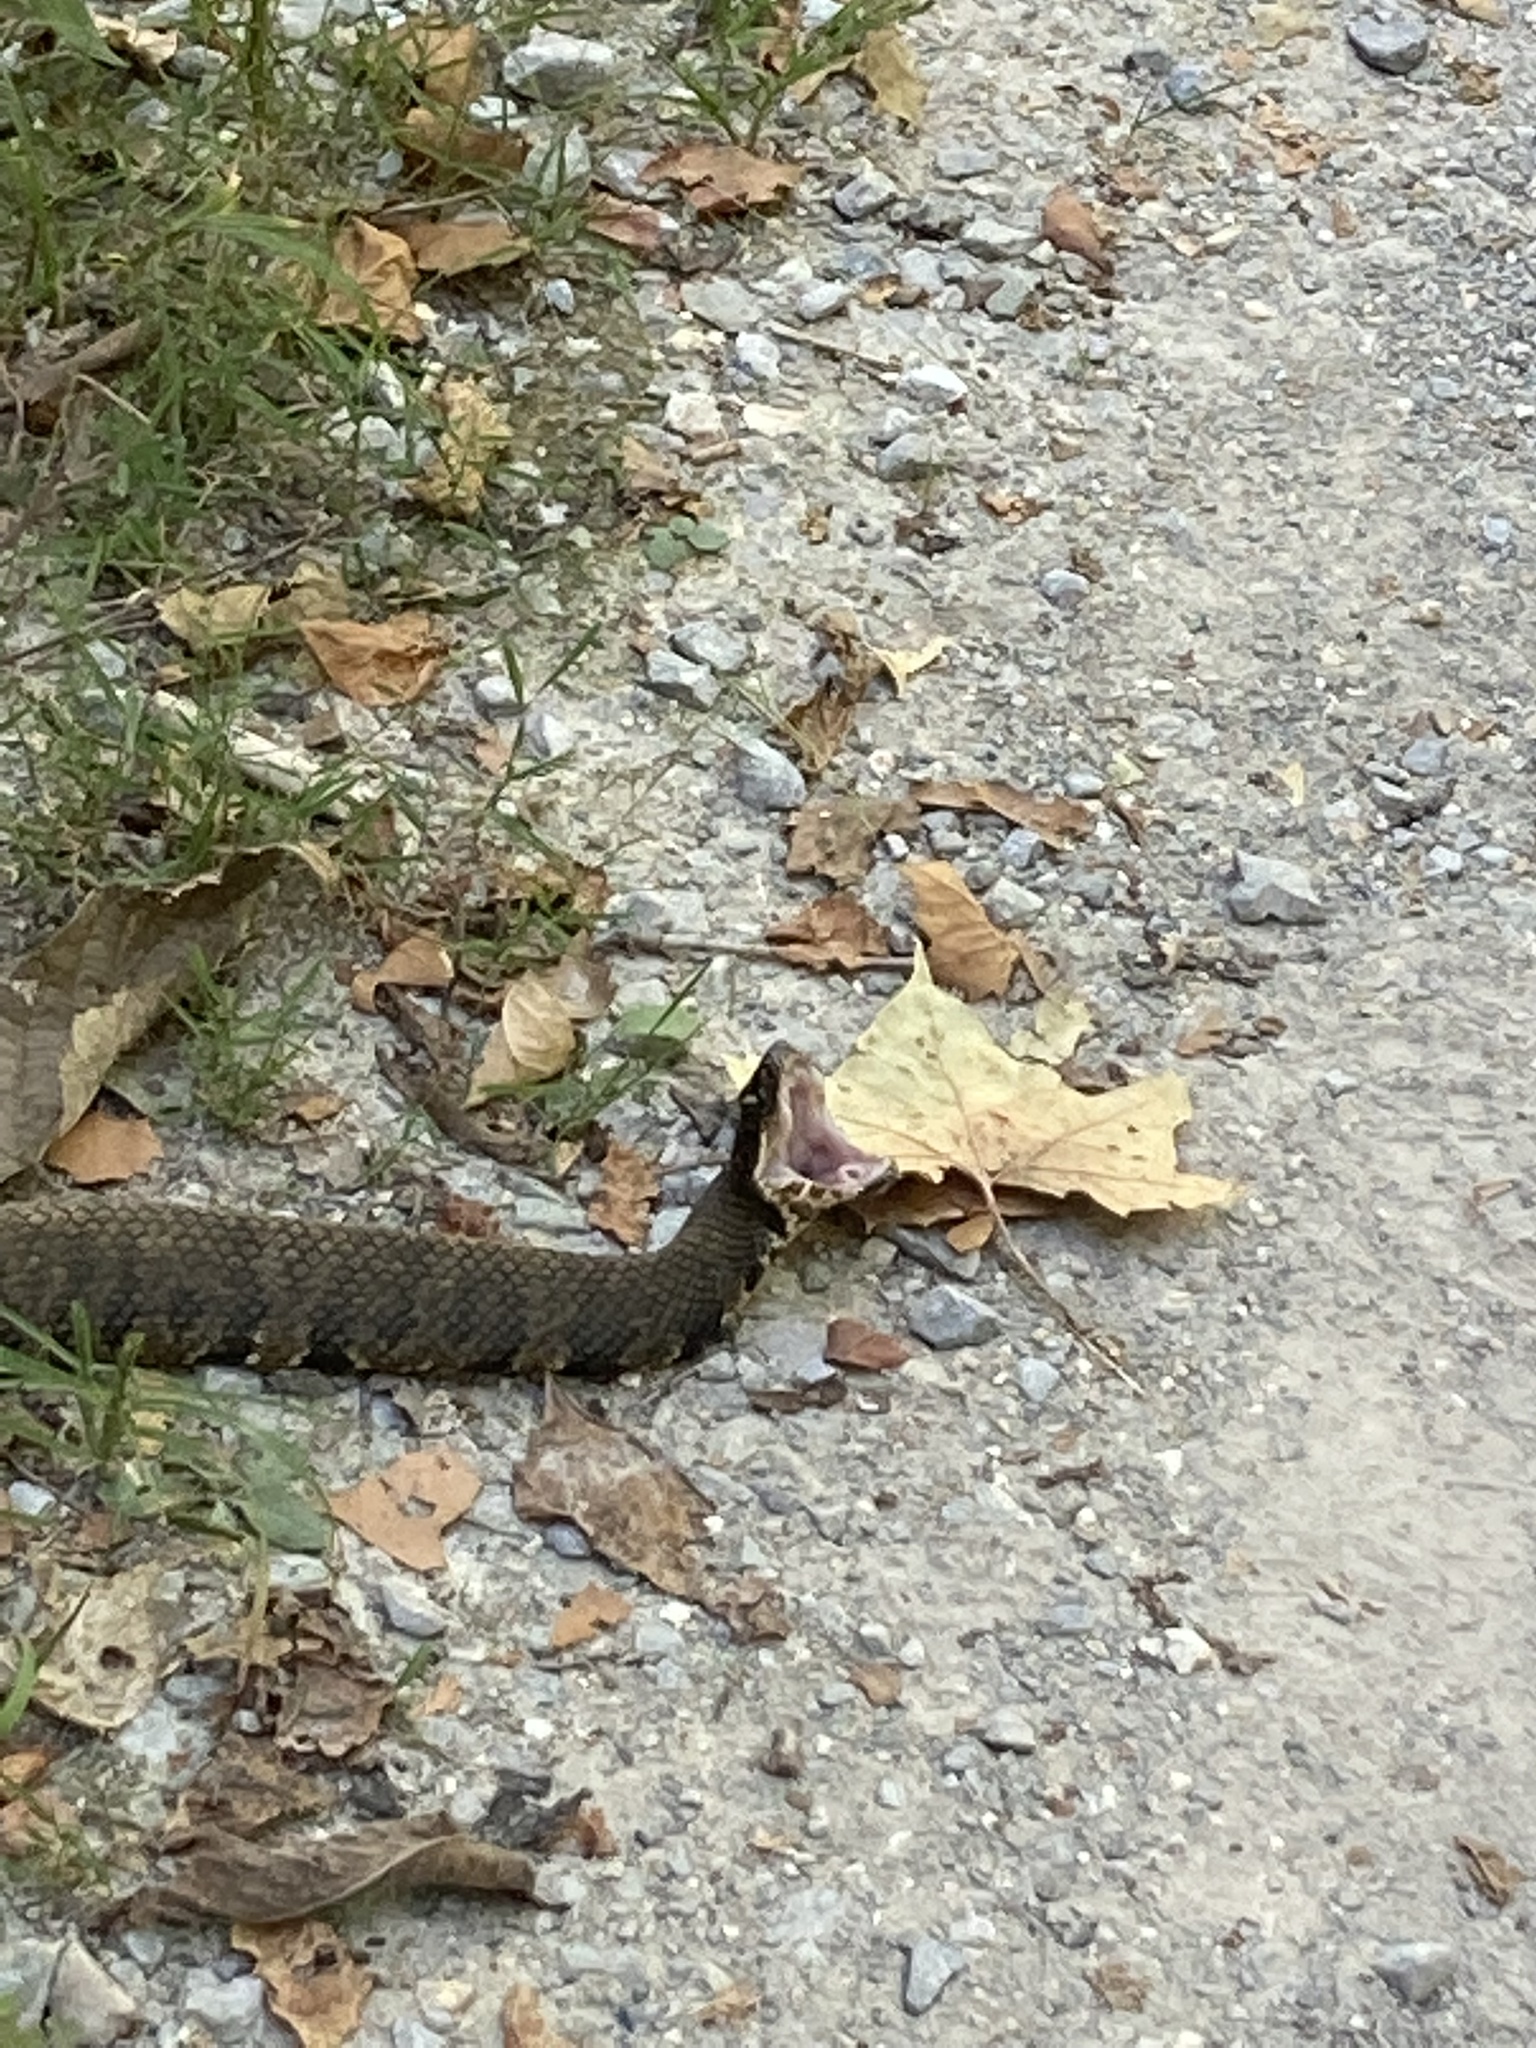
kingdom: Animalia
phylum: Chordata
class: Squamata
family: Viperidae
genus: Agkistrodon
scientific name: Agkistrodon piscivorus
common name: Cottonmouth
